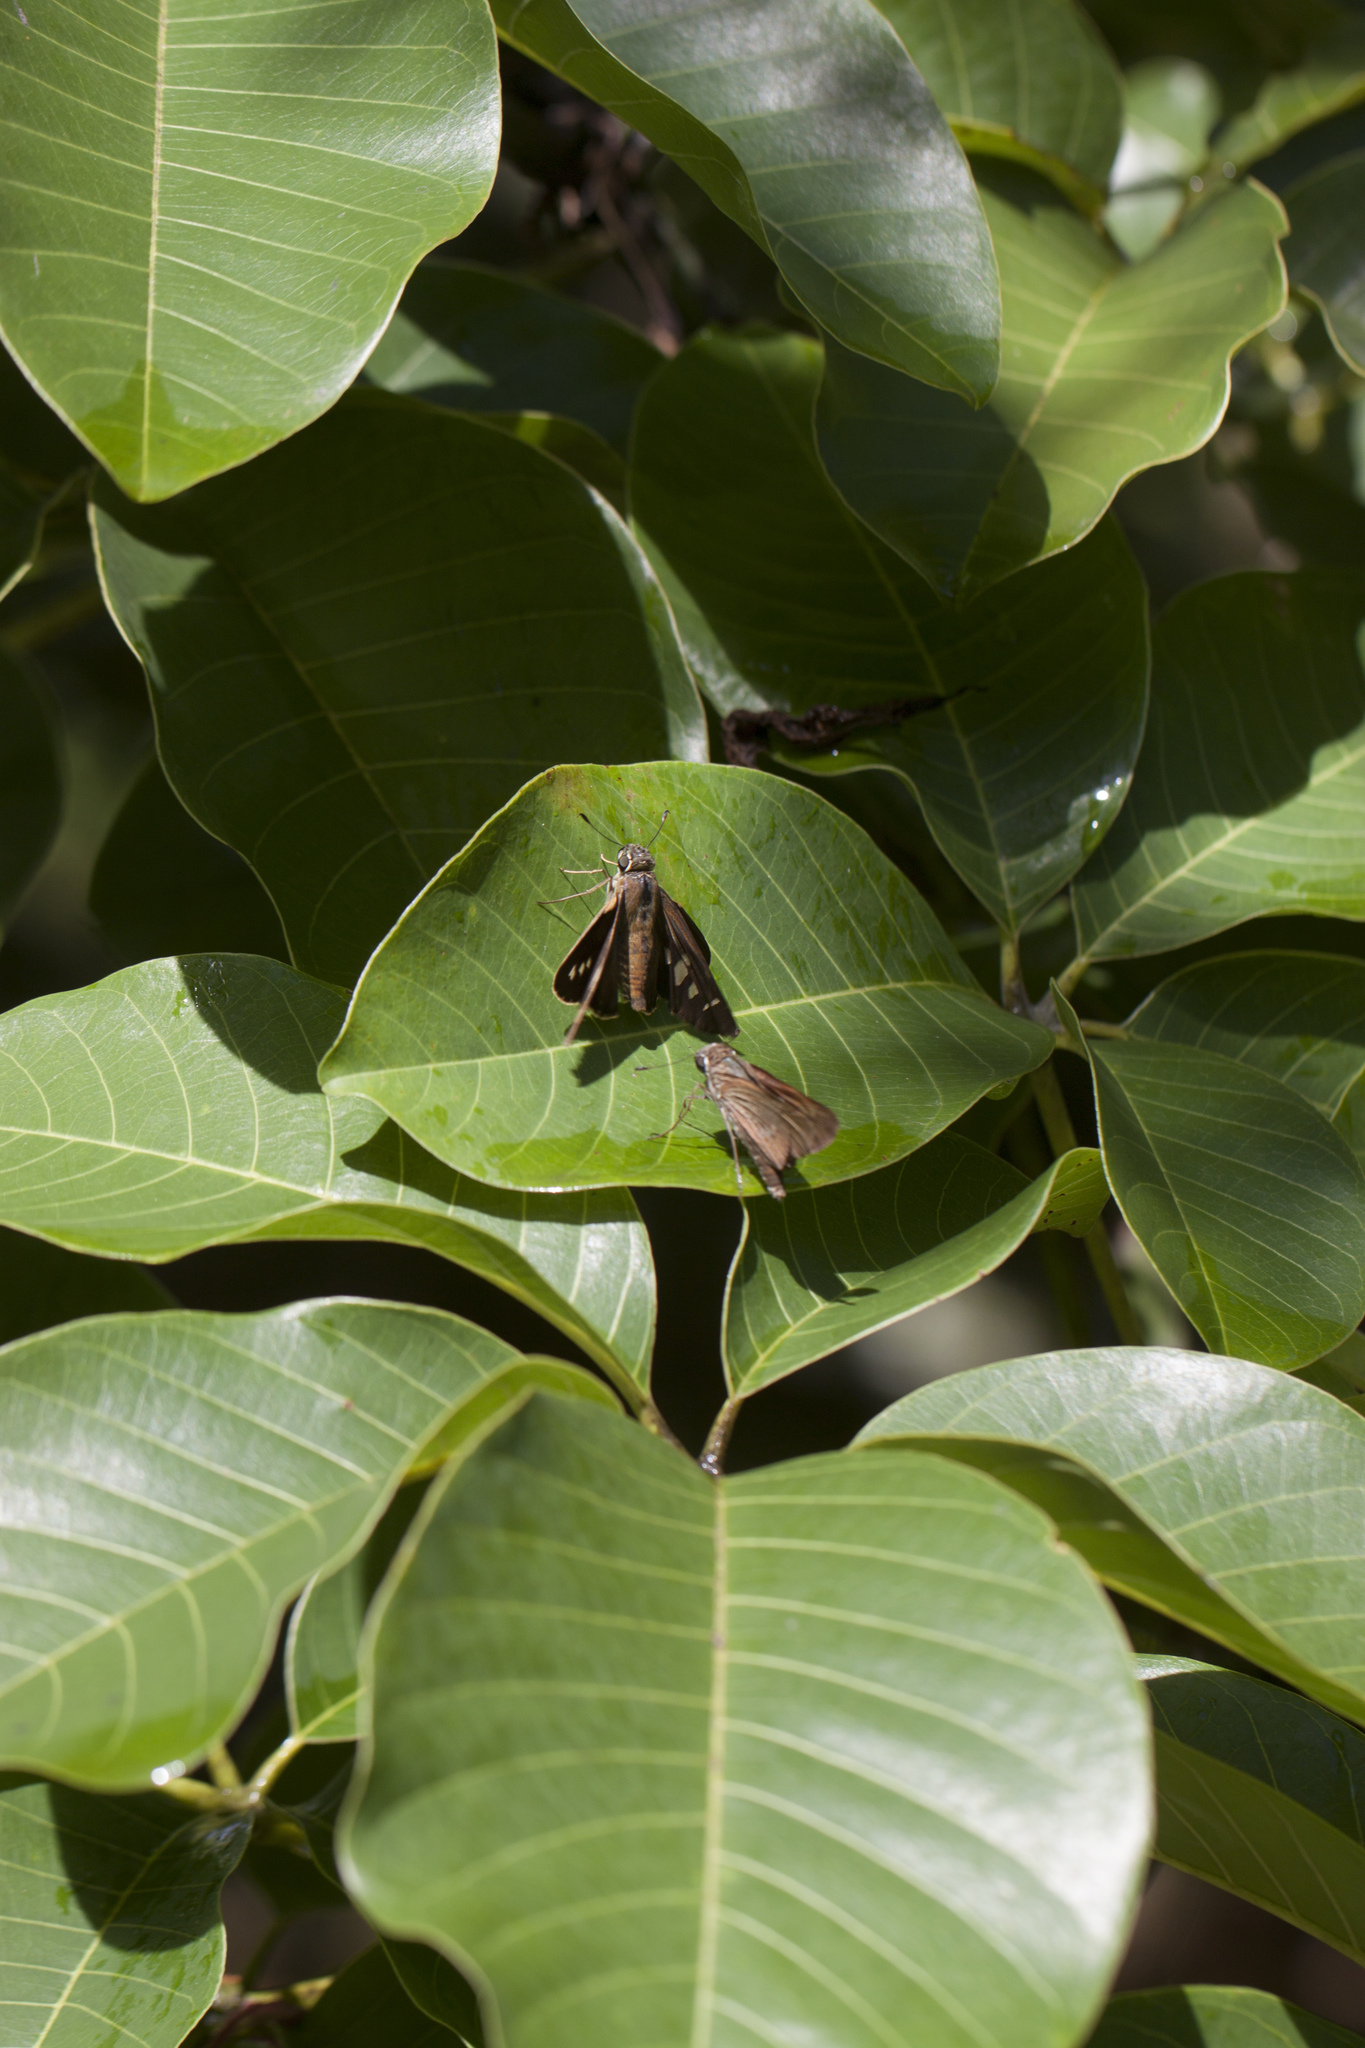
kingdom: Animalia
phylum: Arthropoda
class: Insecta
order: Lepidoptera
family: Hesperiidae
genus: Calpodes
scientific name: Calpodes ethlius
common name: Brazilian skipper
